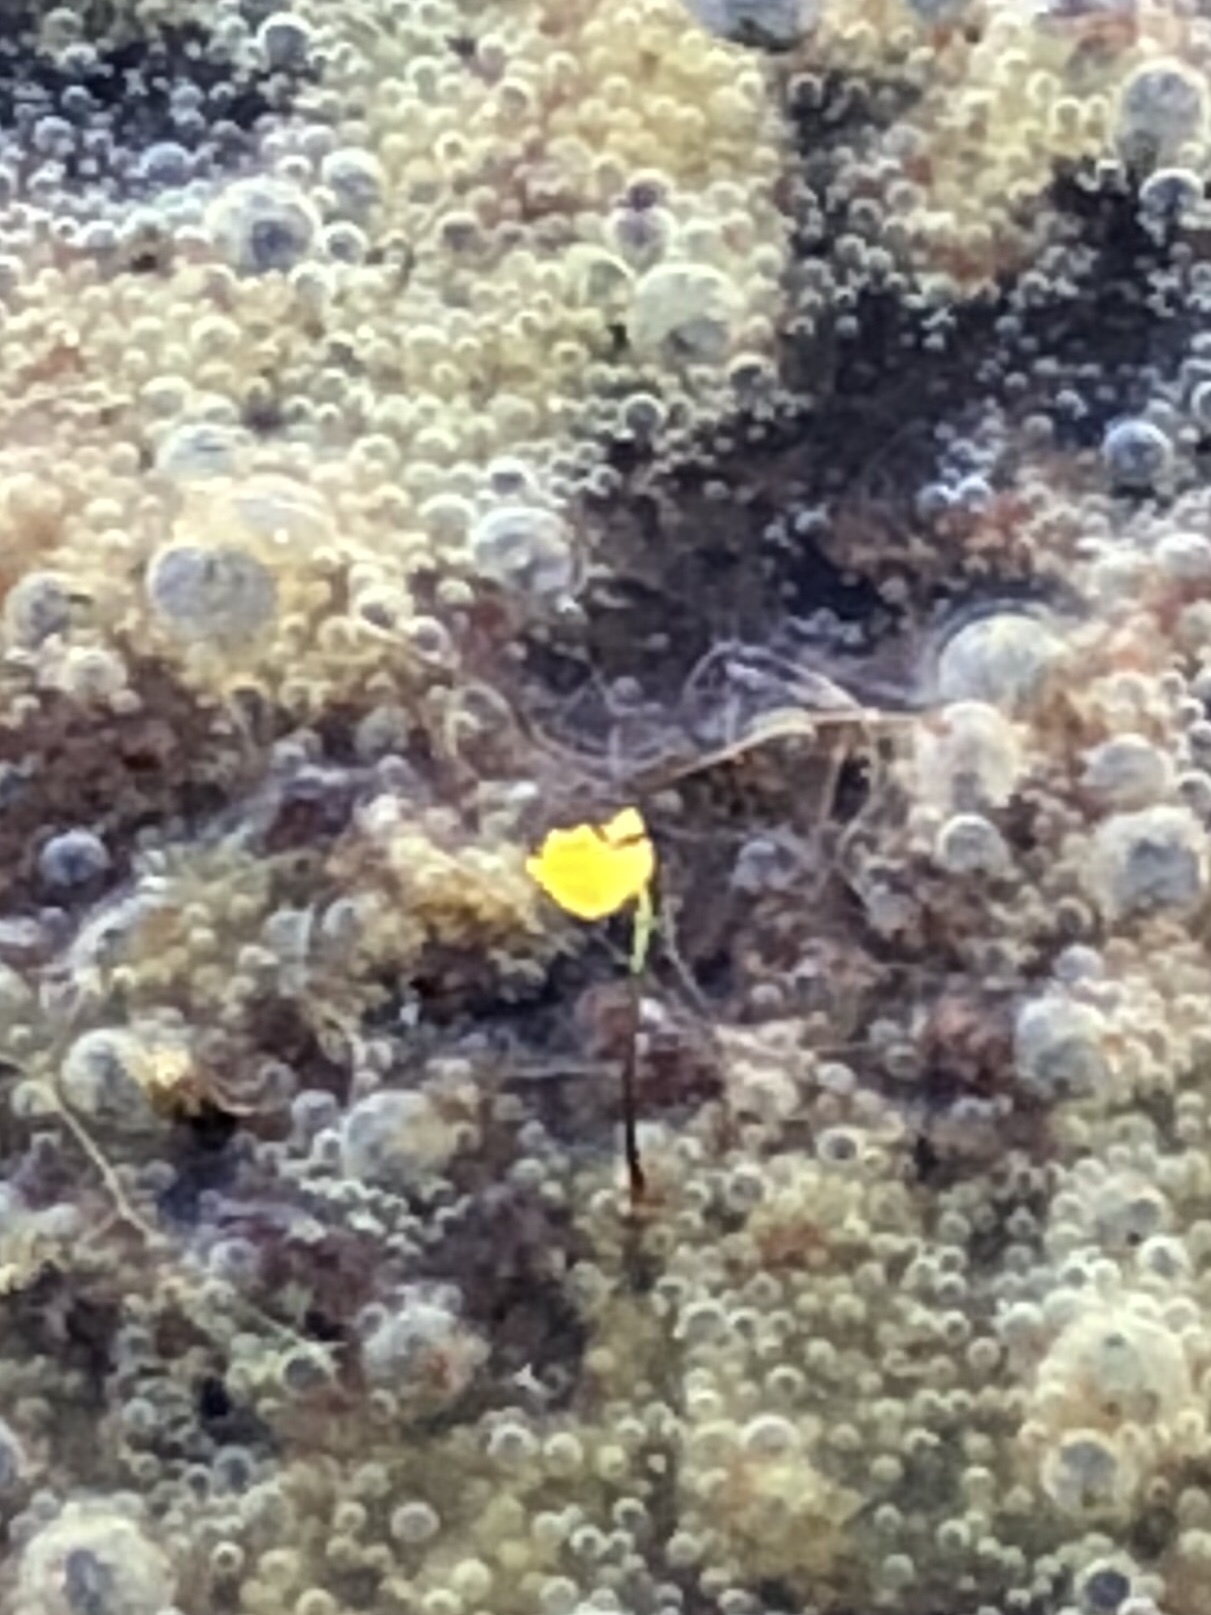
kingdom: Plantae
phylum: Tracheophyta
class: Magnoliopsida
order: Lamiales
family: Lentibulariaceae
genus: Utricularia
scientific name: Utricularia gibba
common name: Humped bladderwort
